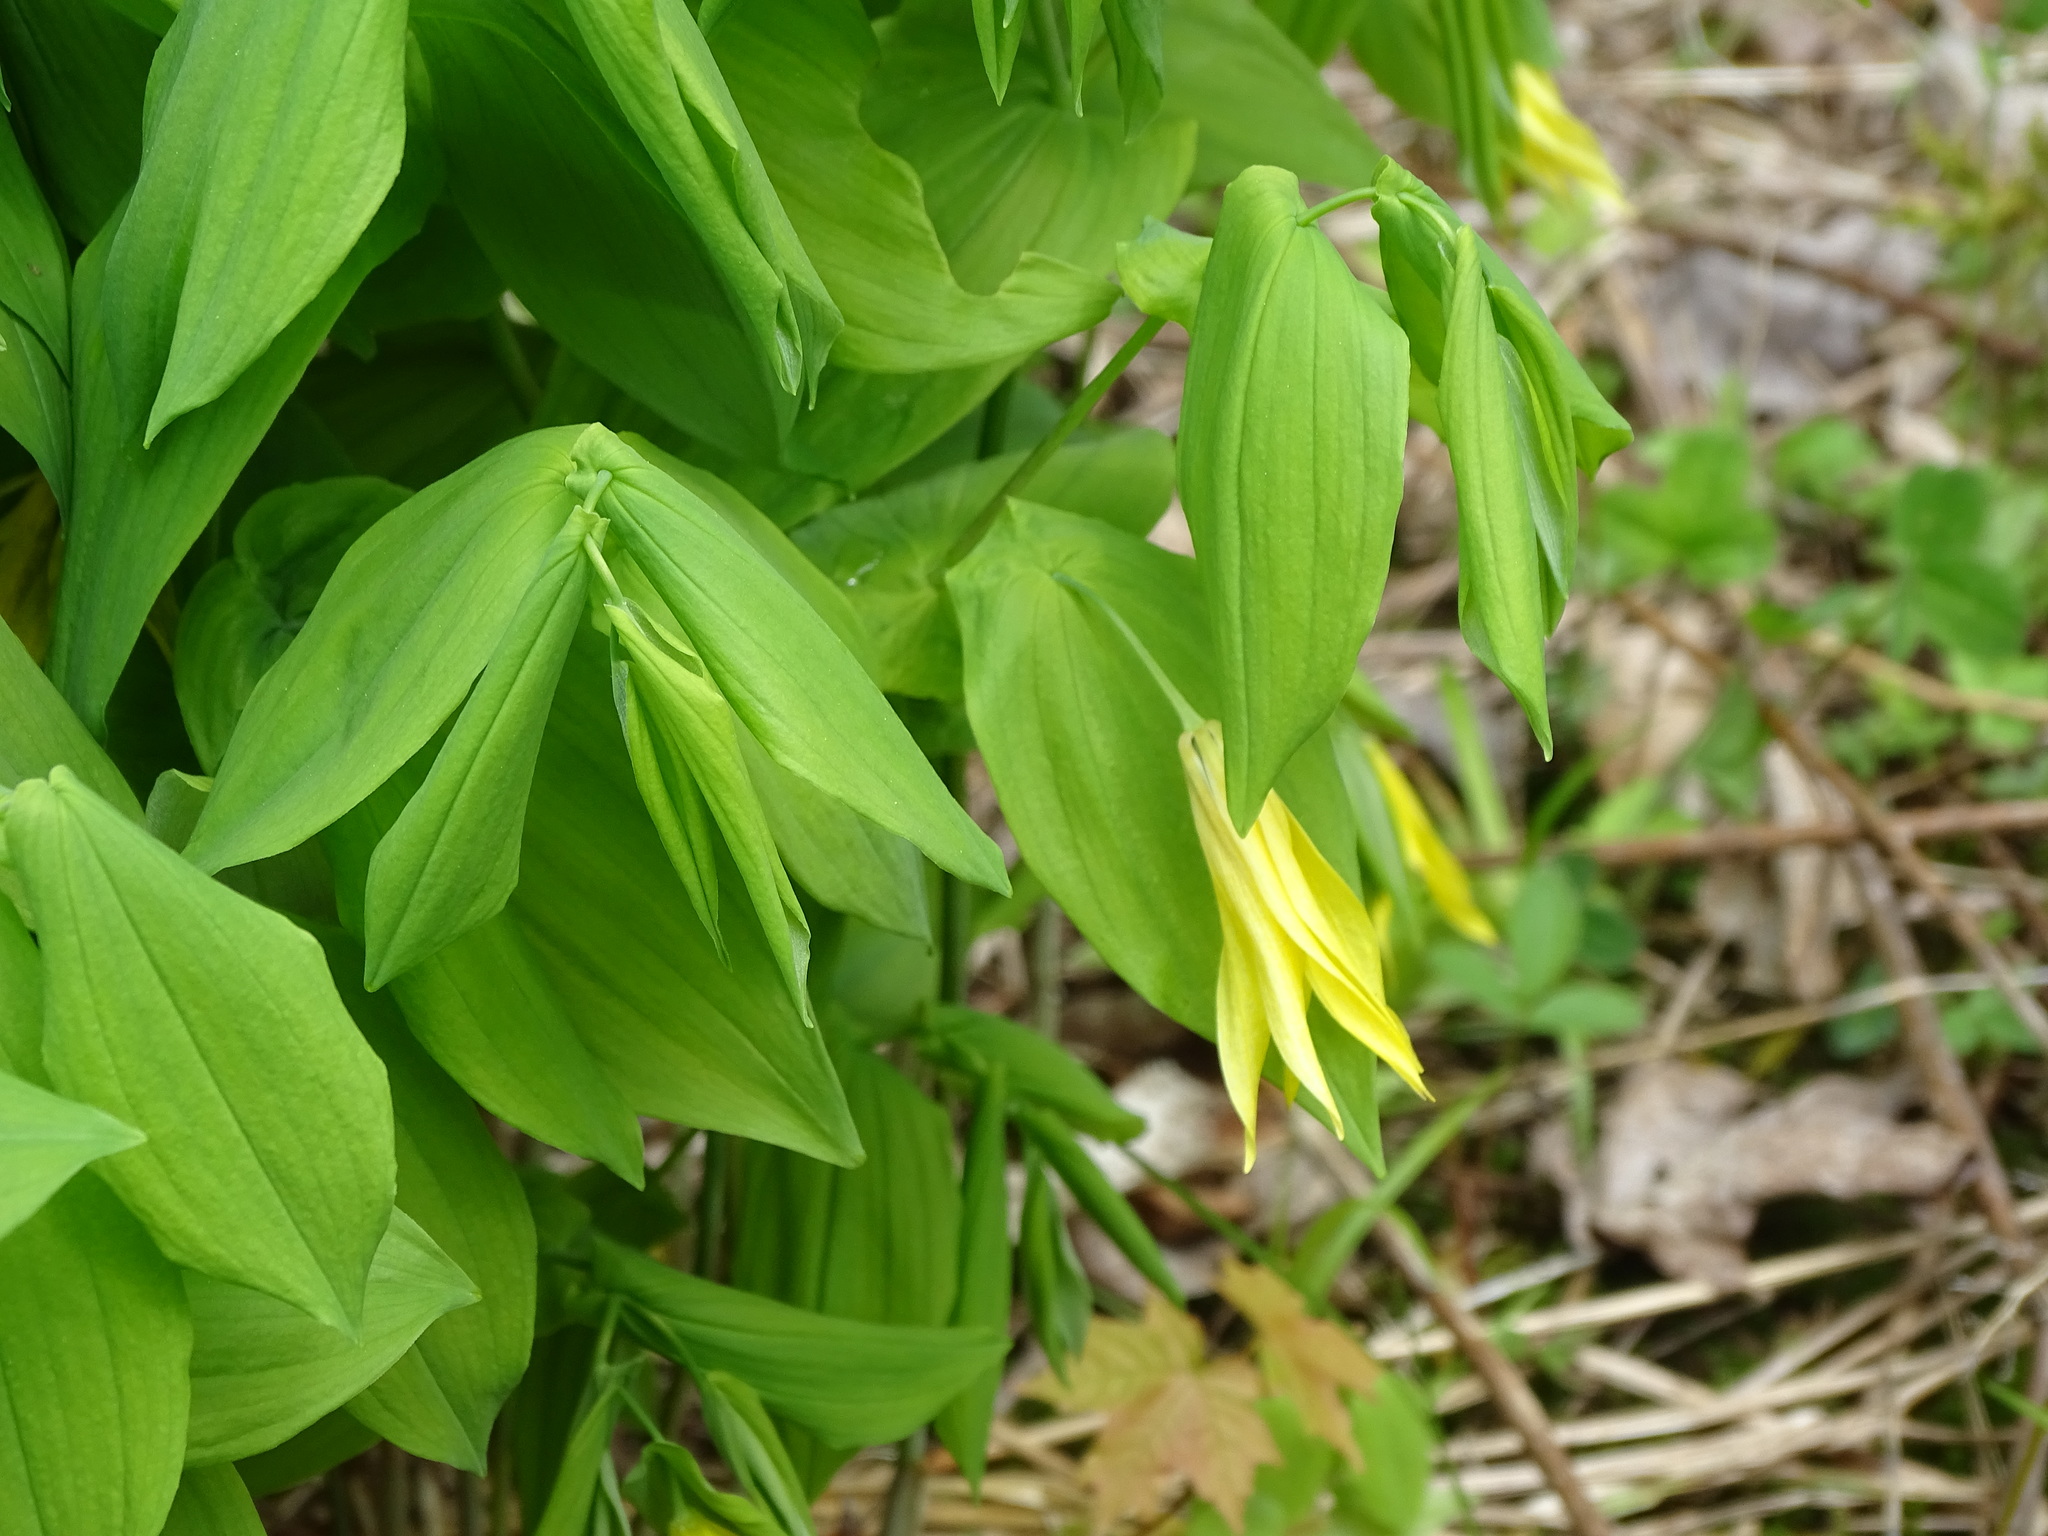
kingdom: Plantae
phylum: Tracheophyta
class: Liliopsida
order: Liliales
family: Colchicaceae
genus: Uvularia
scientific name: Uvularia grandiflora
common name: Bellwort
